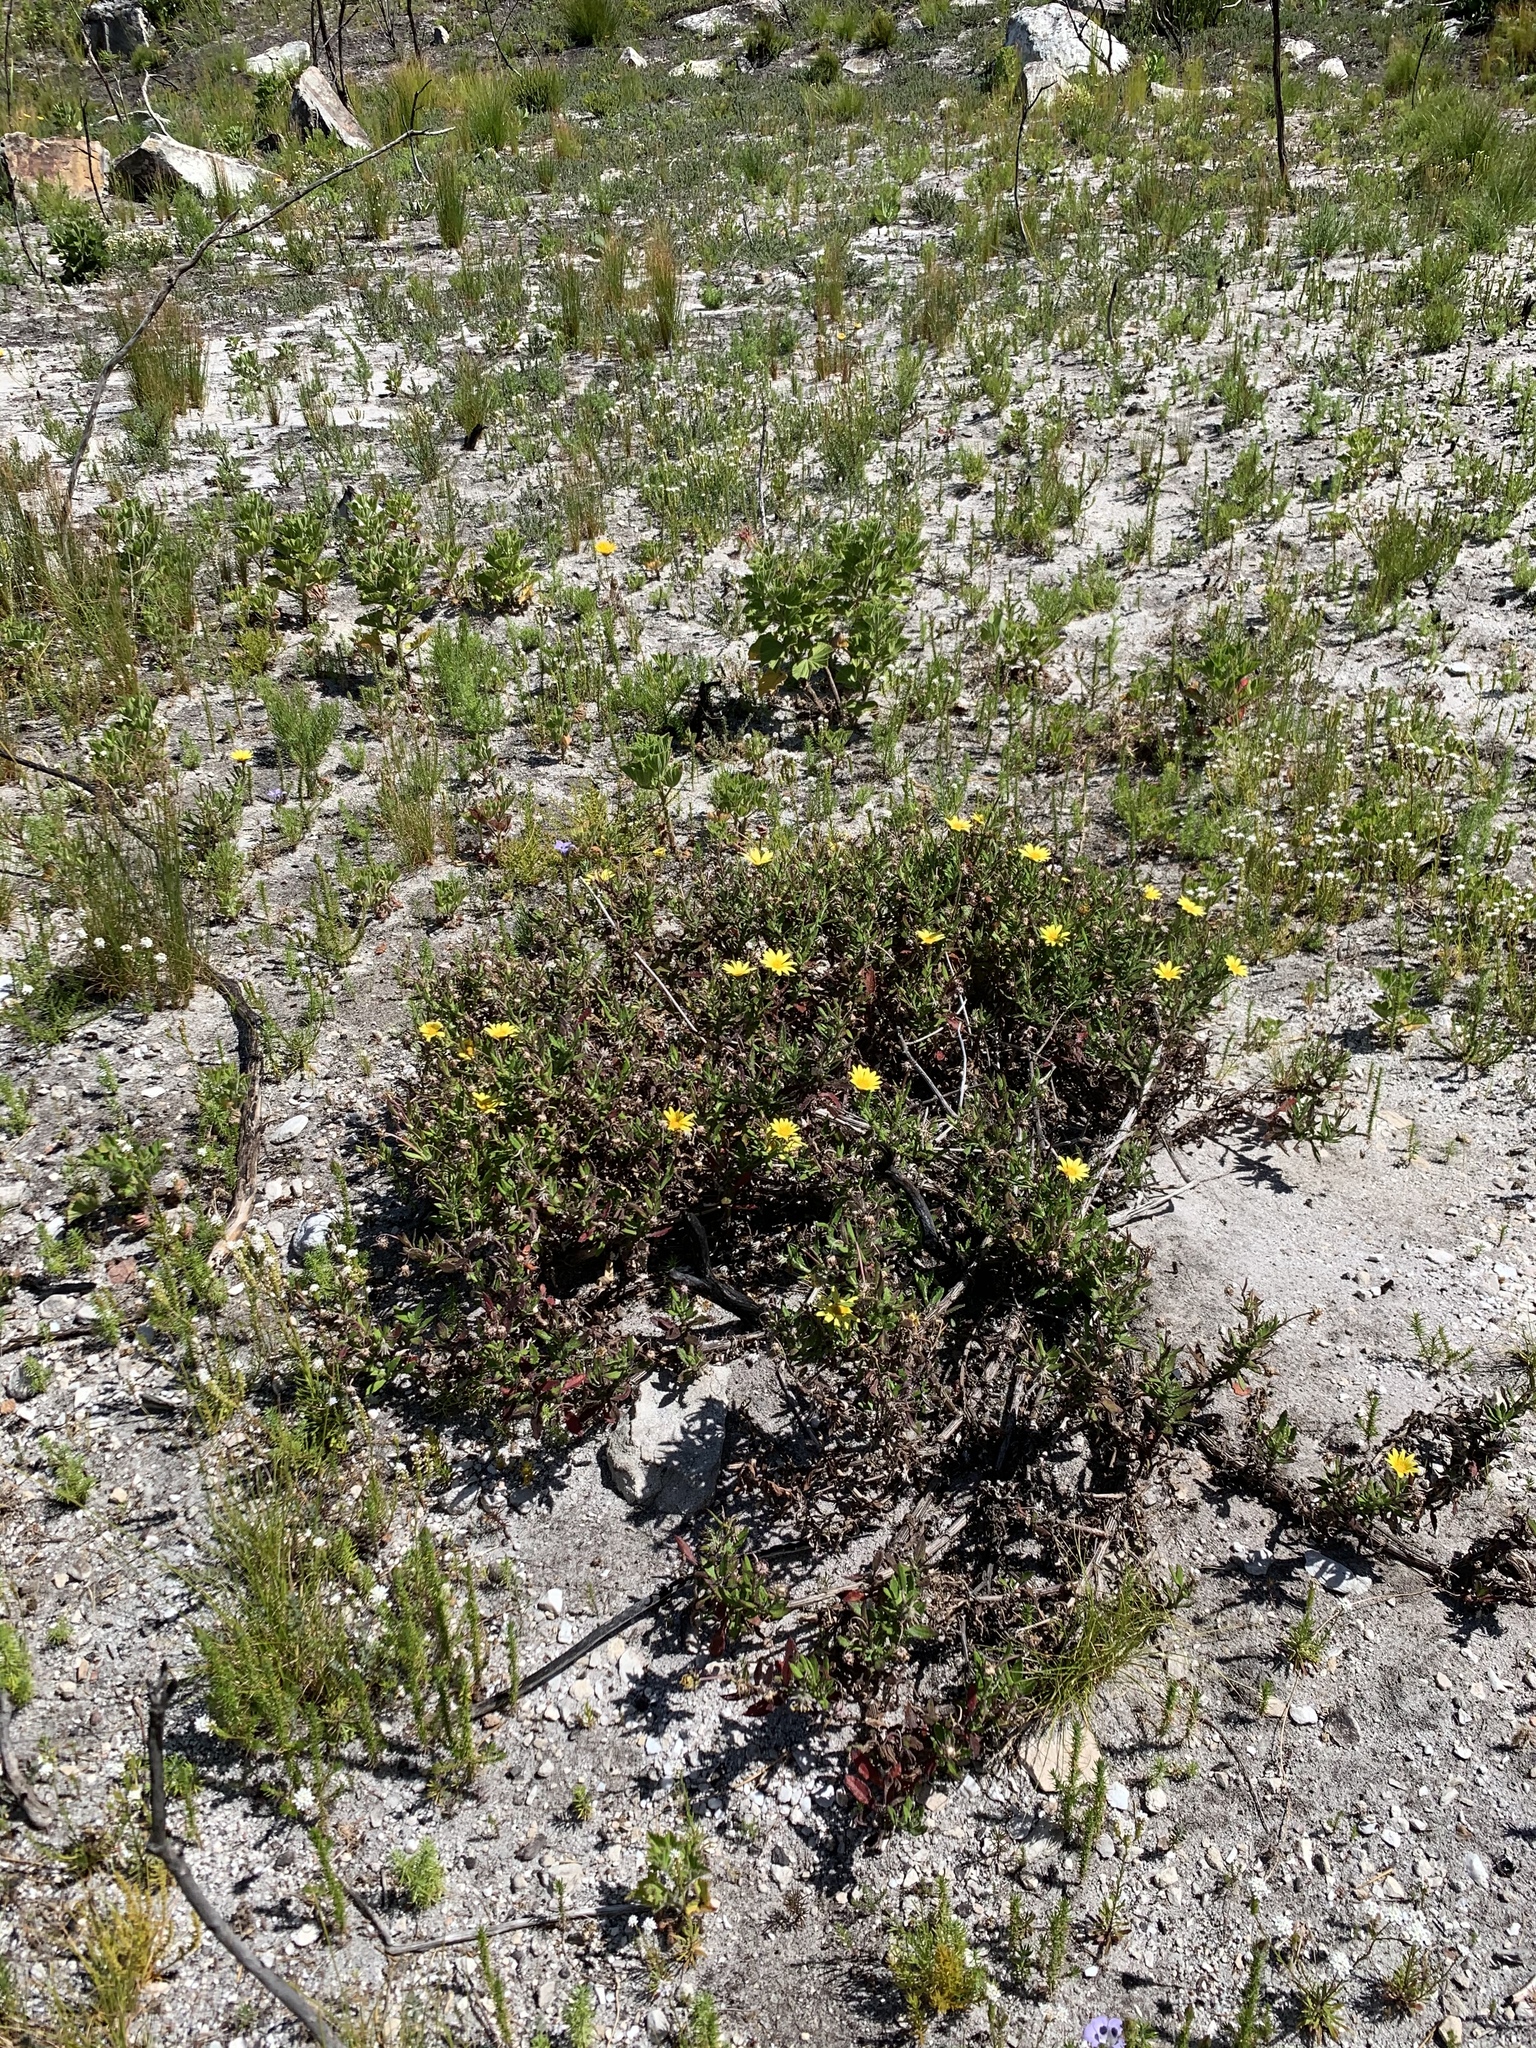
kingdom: Plantae
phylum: Tracheophyta
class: Magnoliopsida
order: Asterales
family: Asteraceae
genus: Arctotis
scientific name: Arctotis scabra
